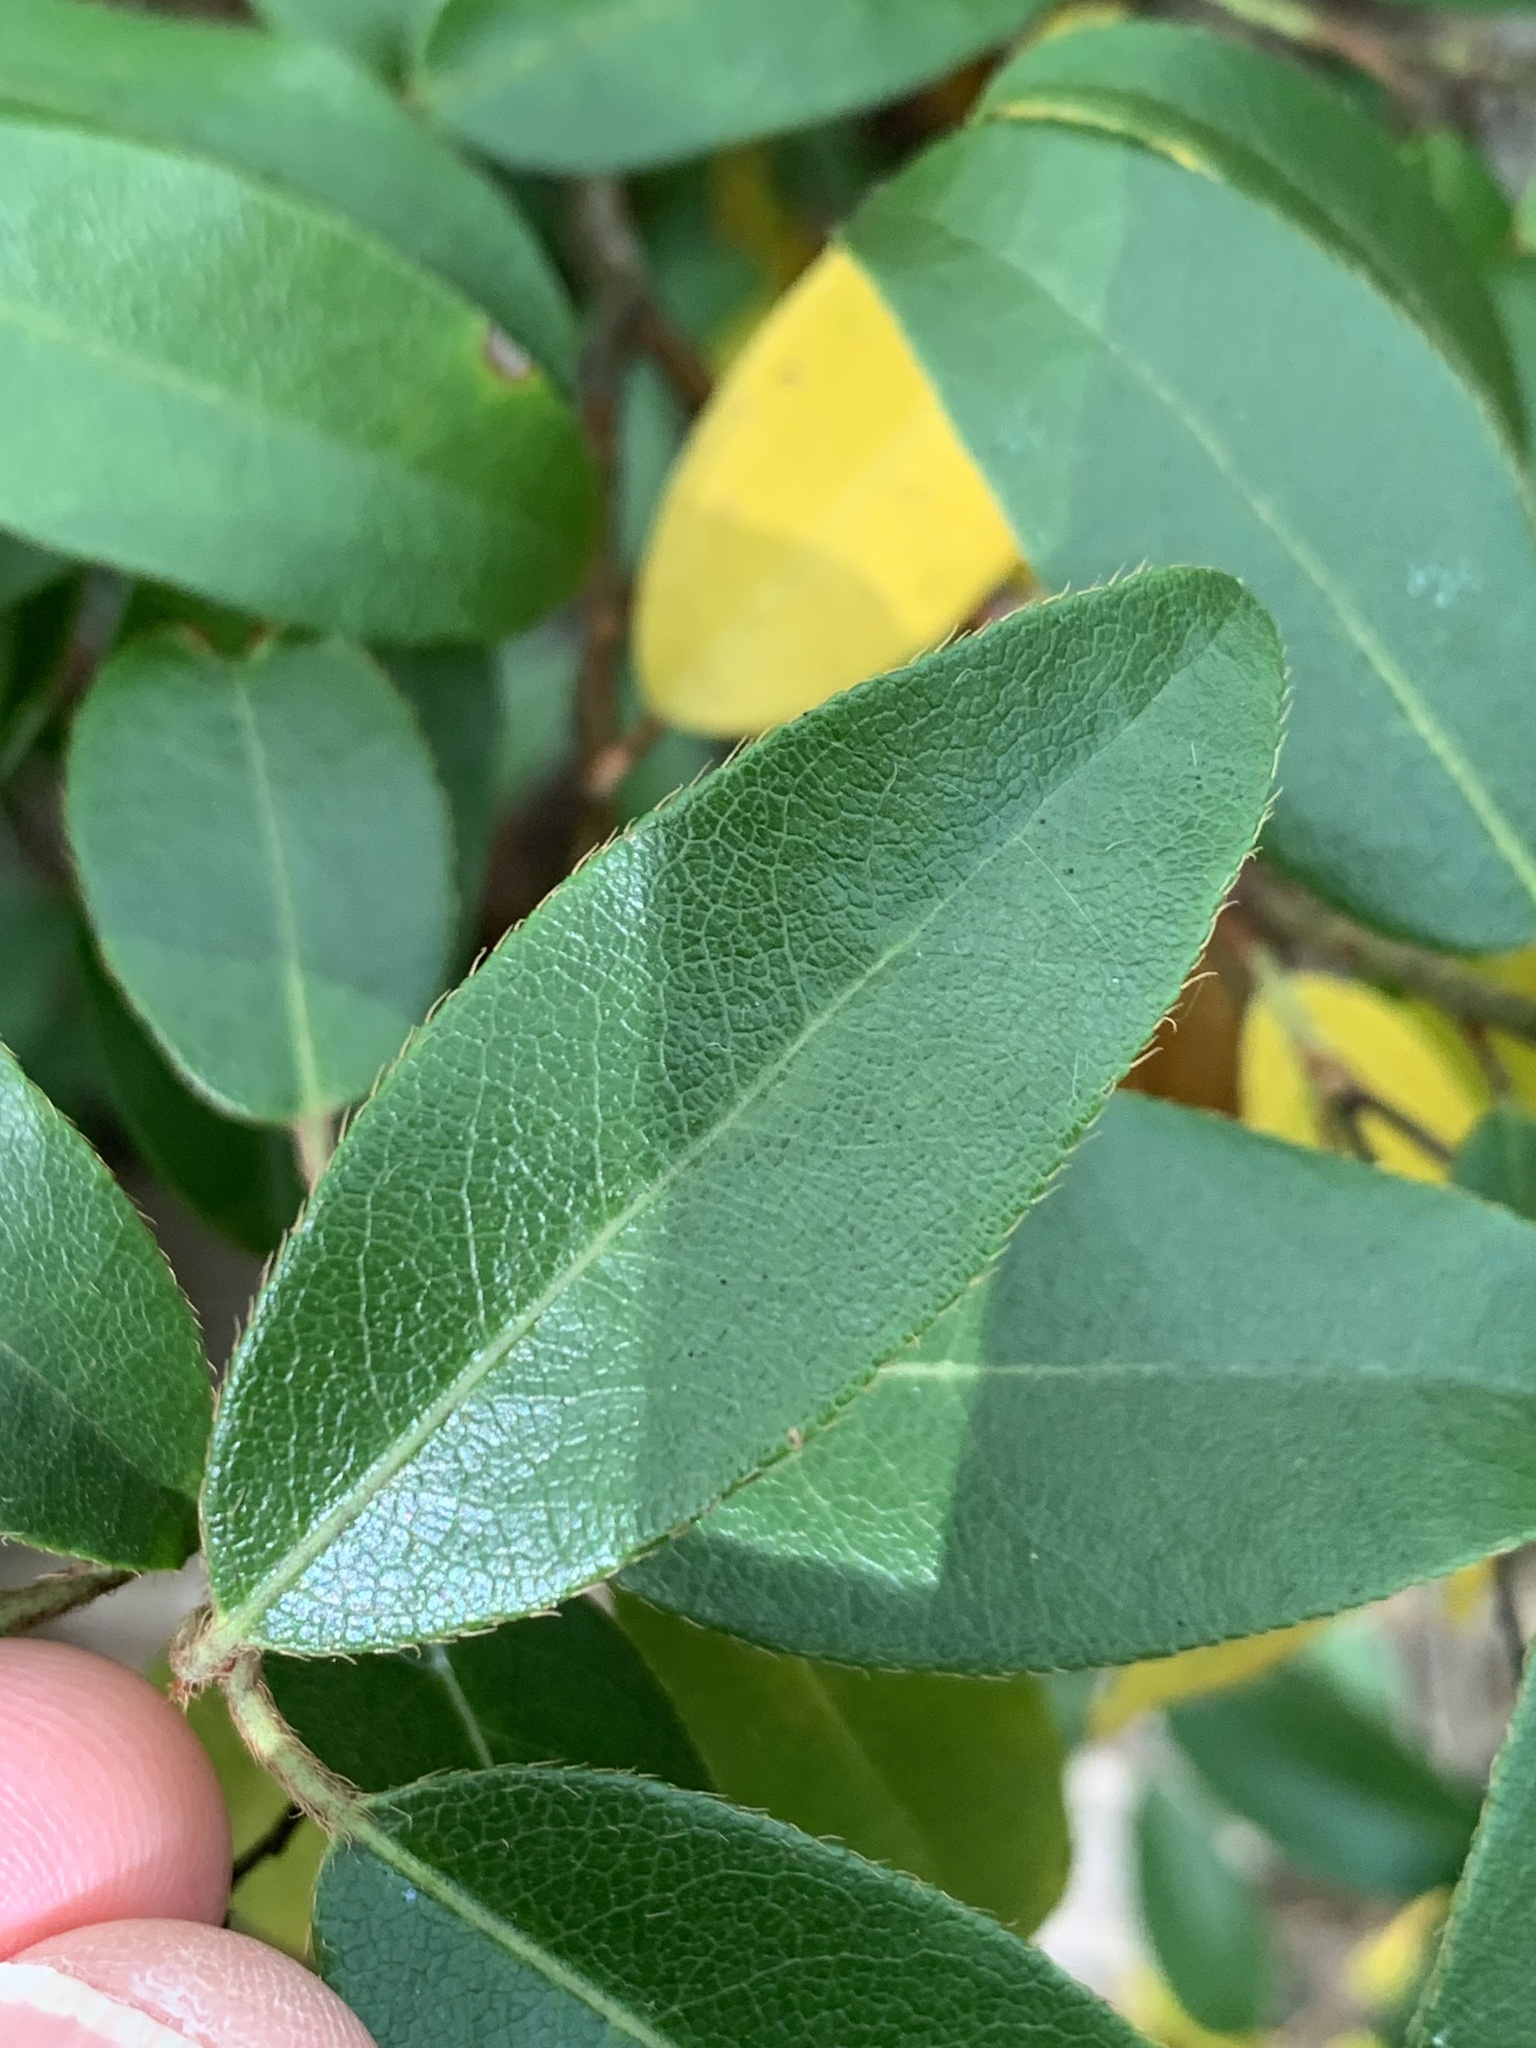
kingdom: Plantae
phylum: Tracheophyta
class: Magnoliopsida
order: Ericales
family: Ericaceae
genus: Pieris
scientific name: Pieris floribunda
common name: Flutterbush
